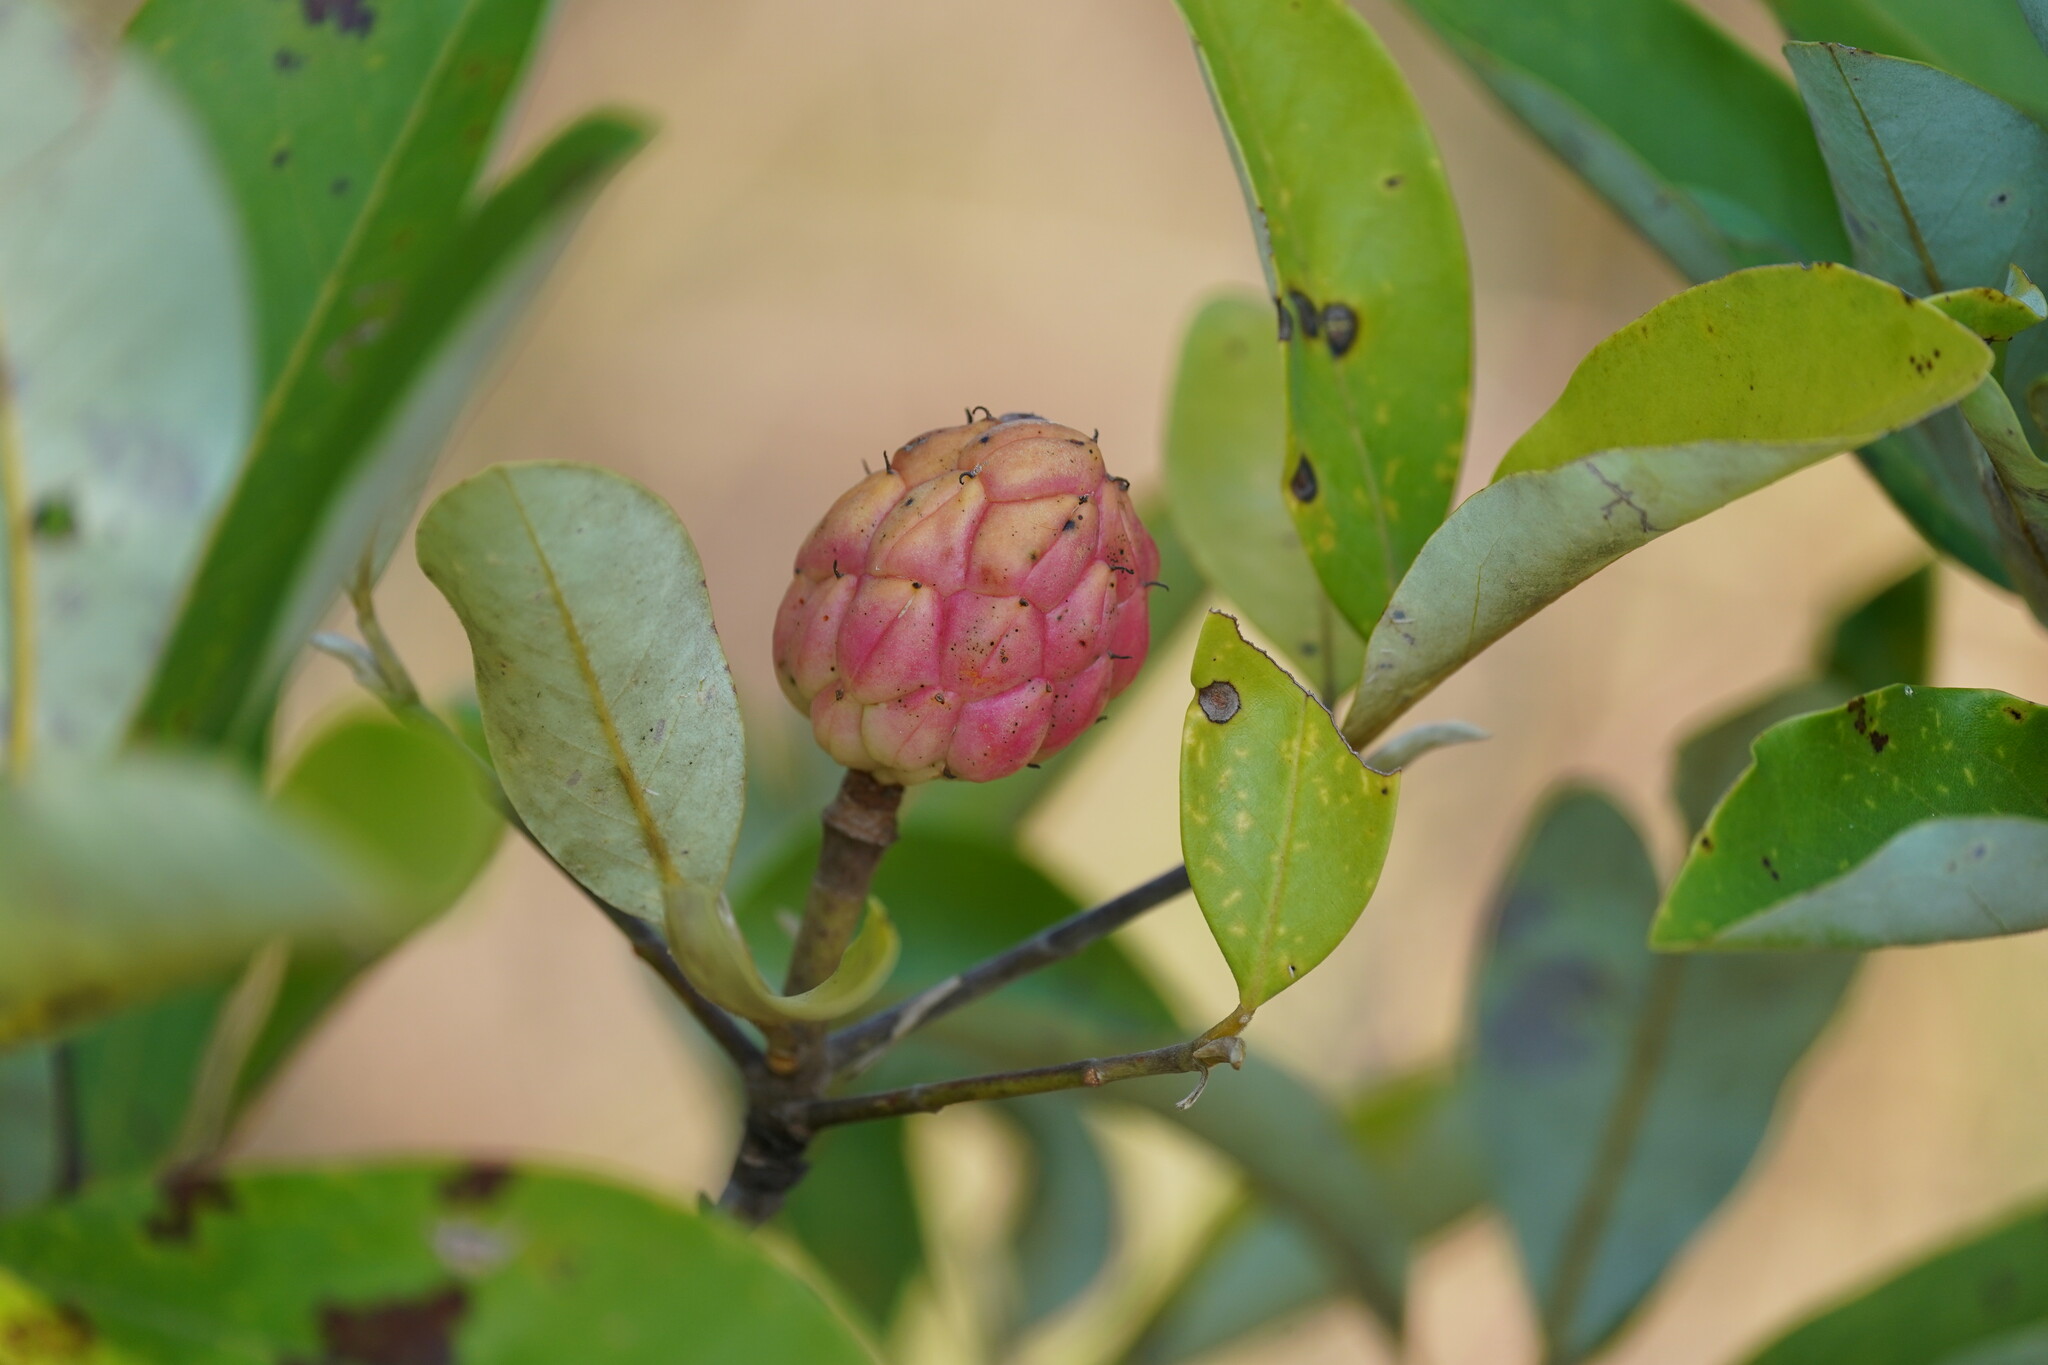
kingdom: Plantae
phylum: Tracheophyta
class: Magnoliopsida
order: Magnoliales
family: Magnoliaceae
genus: Magnolia
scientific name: Magnolia virginiana
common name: Swamp bay
